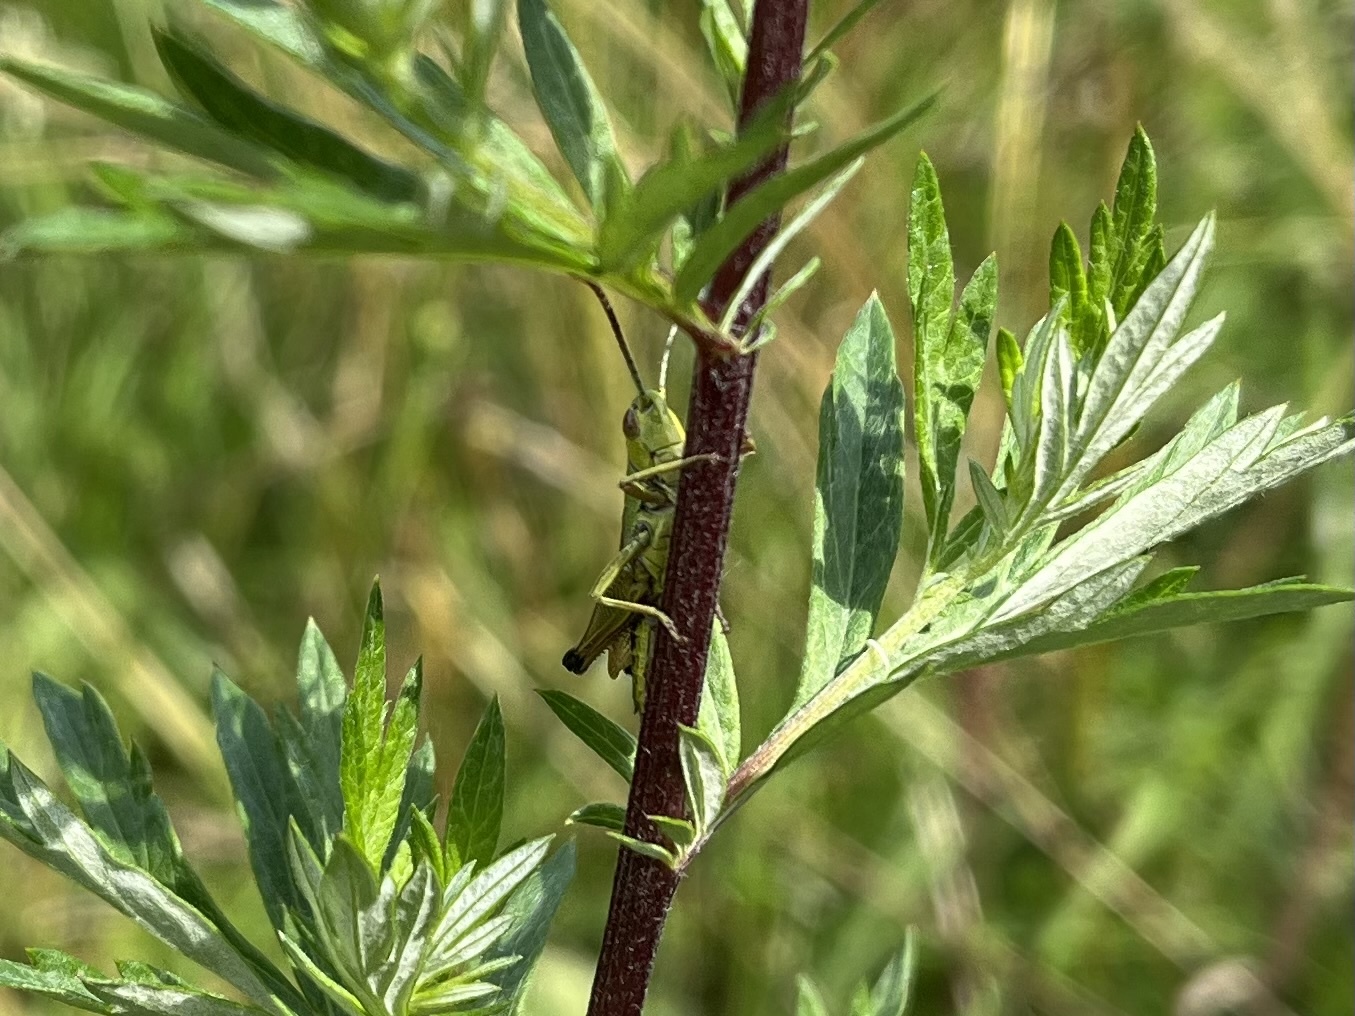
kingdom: Animalia
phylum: Arthropoda
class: Insecta
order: Orthoptera
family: Acrididae
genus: Pseudochorthippus
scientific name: Pseudochorthippus parallelus
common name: Meadow grasshopper
